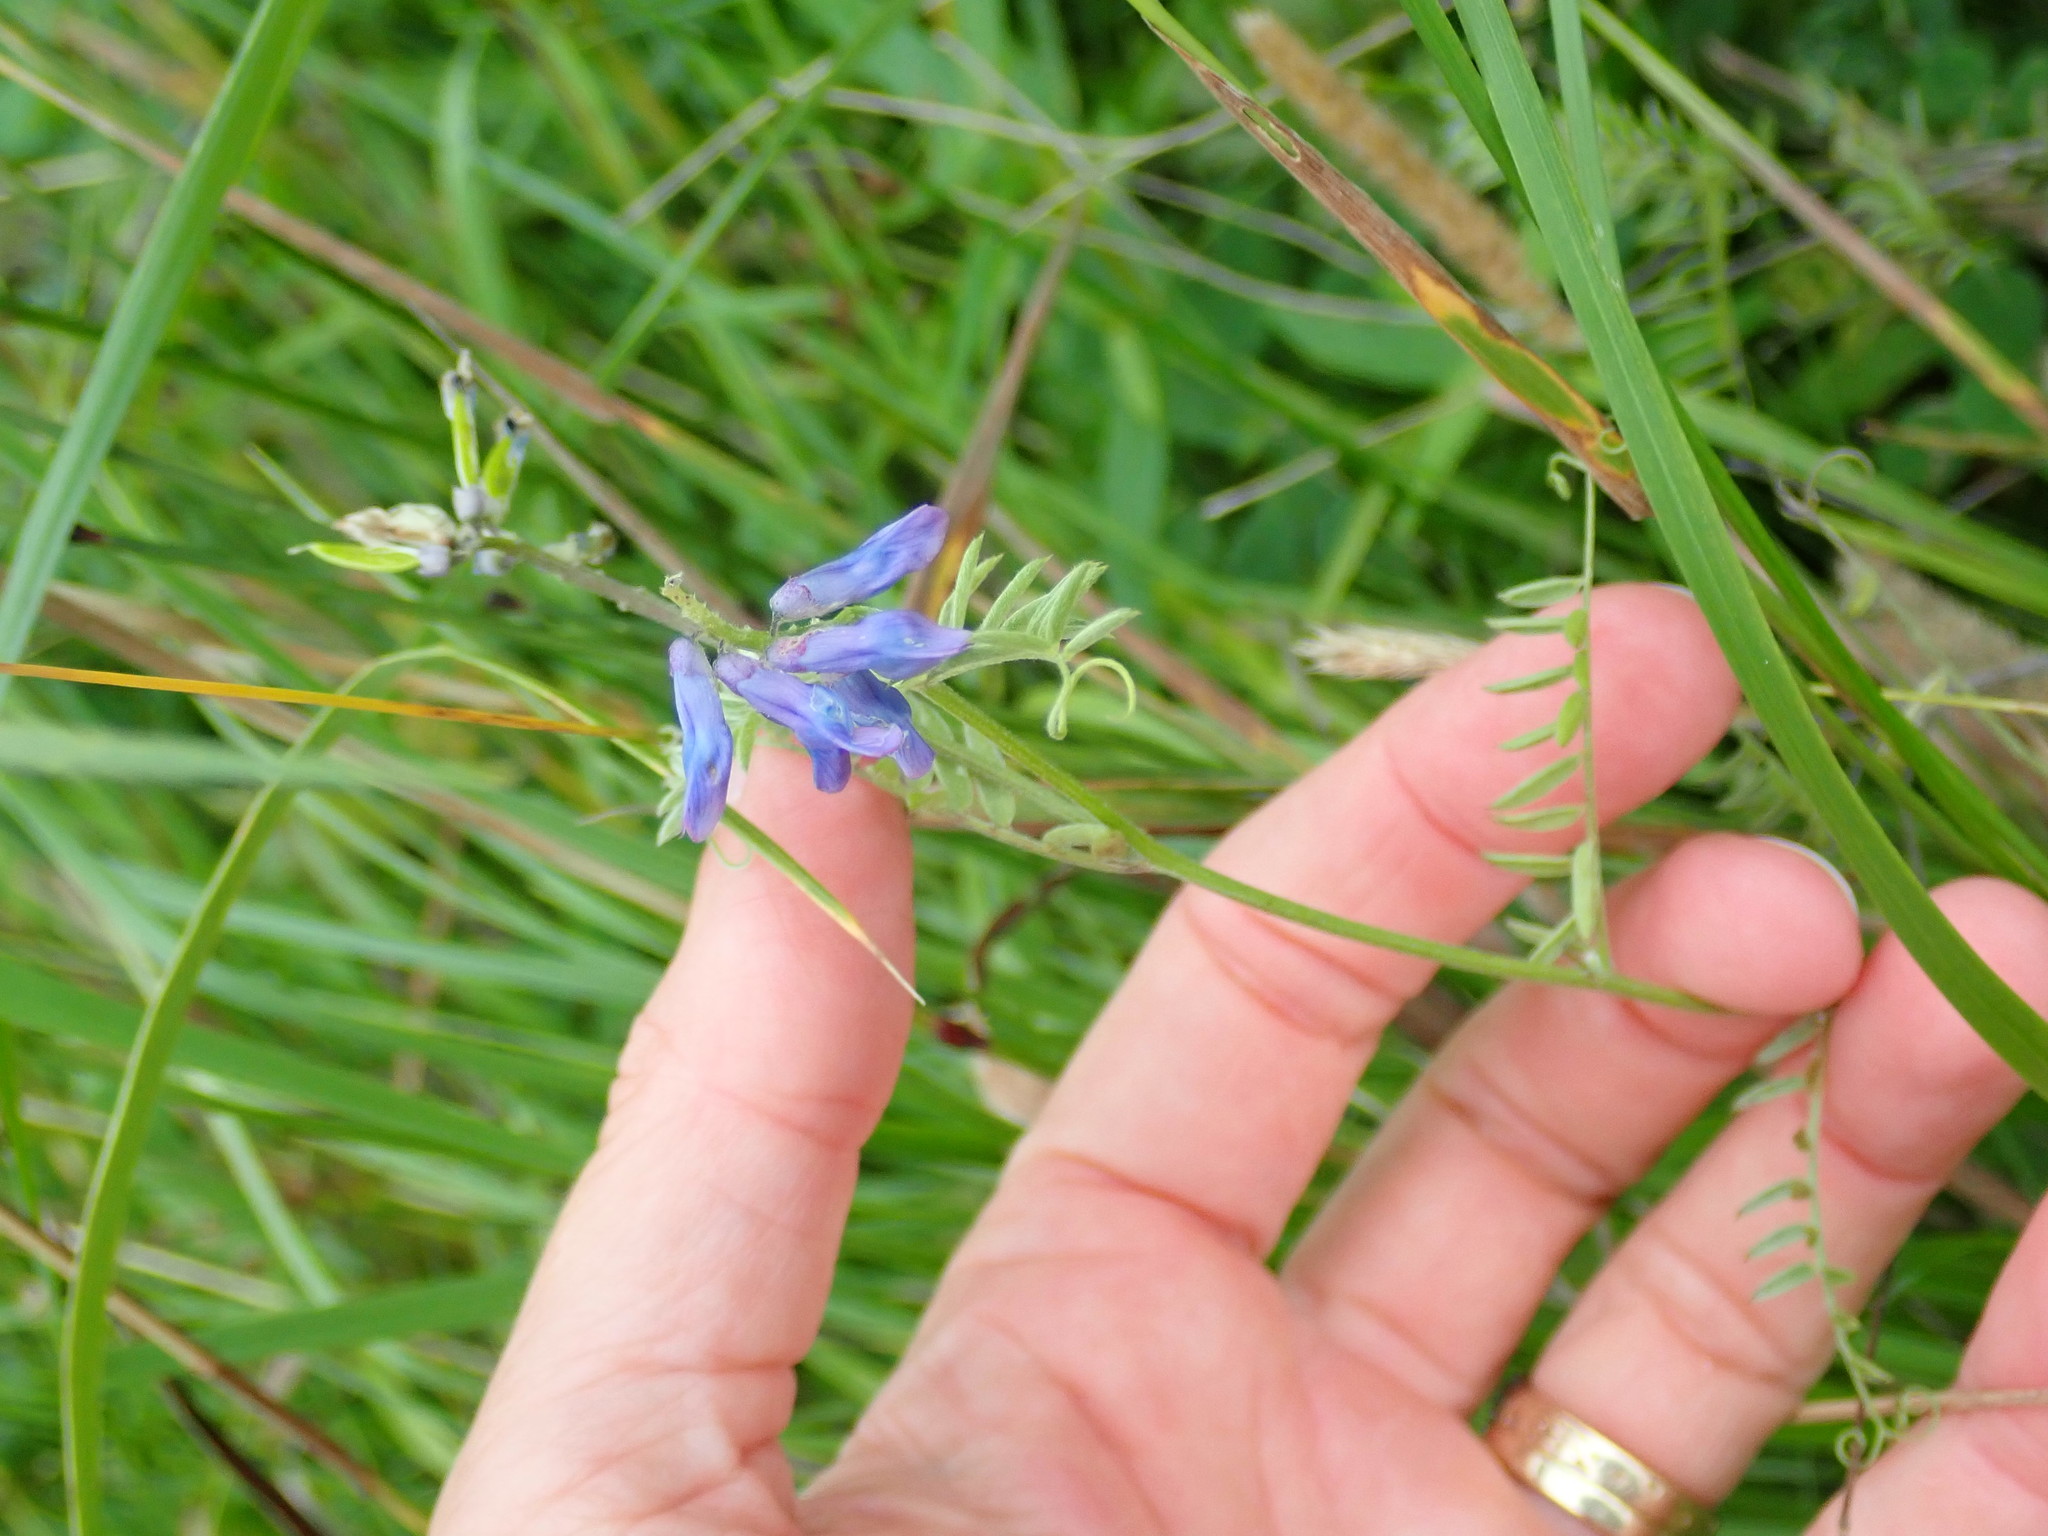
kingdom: Plantae
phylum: Tracheophyta
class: Magnoliopsida
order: Fabales
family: Fabaceae
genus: Vicia
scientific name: Vicia cracca
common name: Bird vetch
